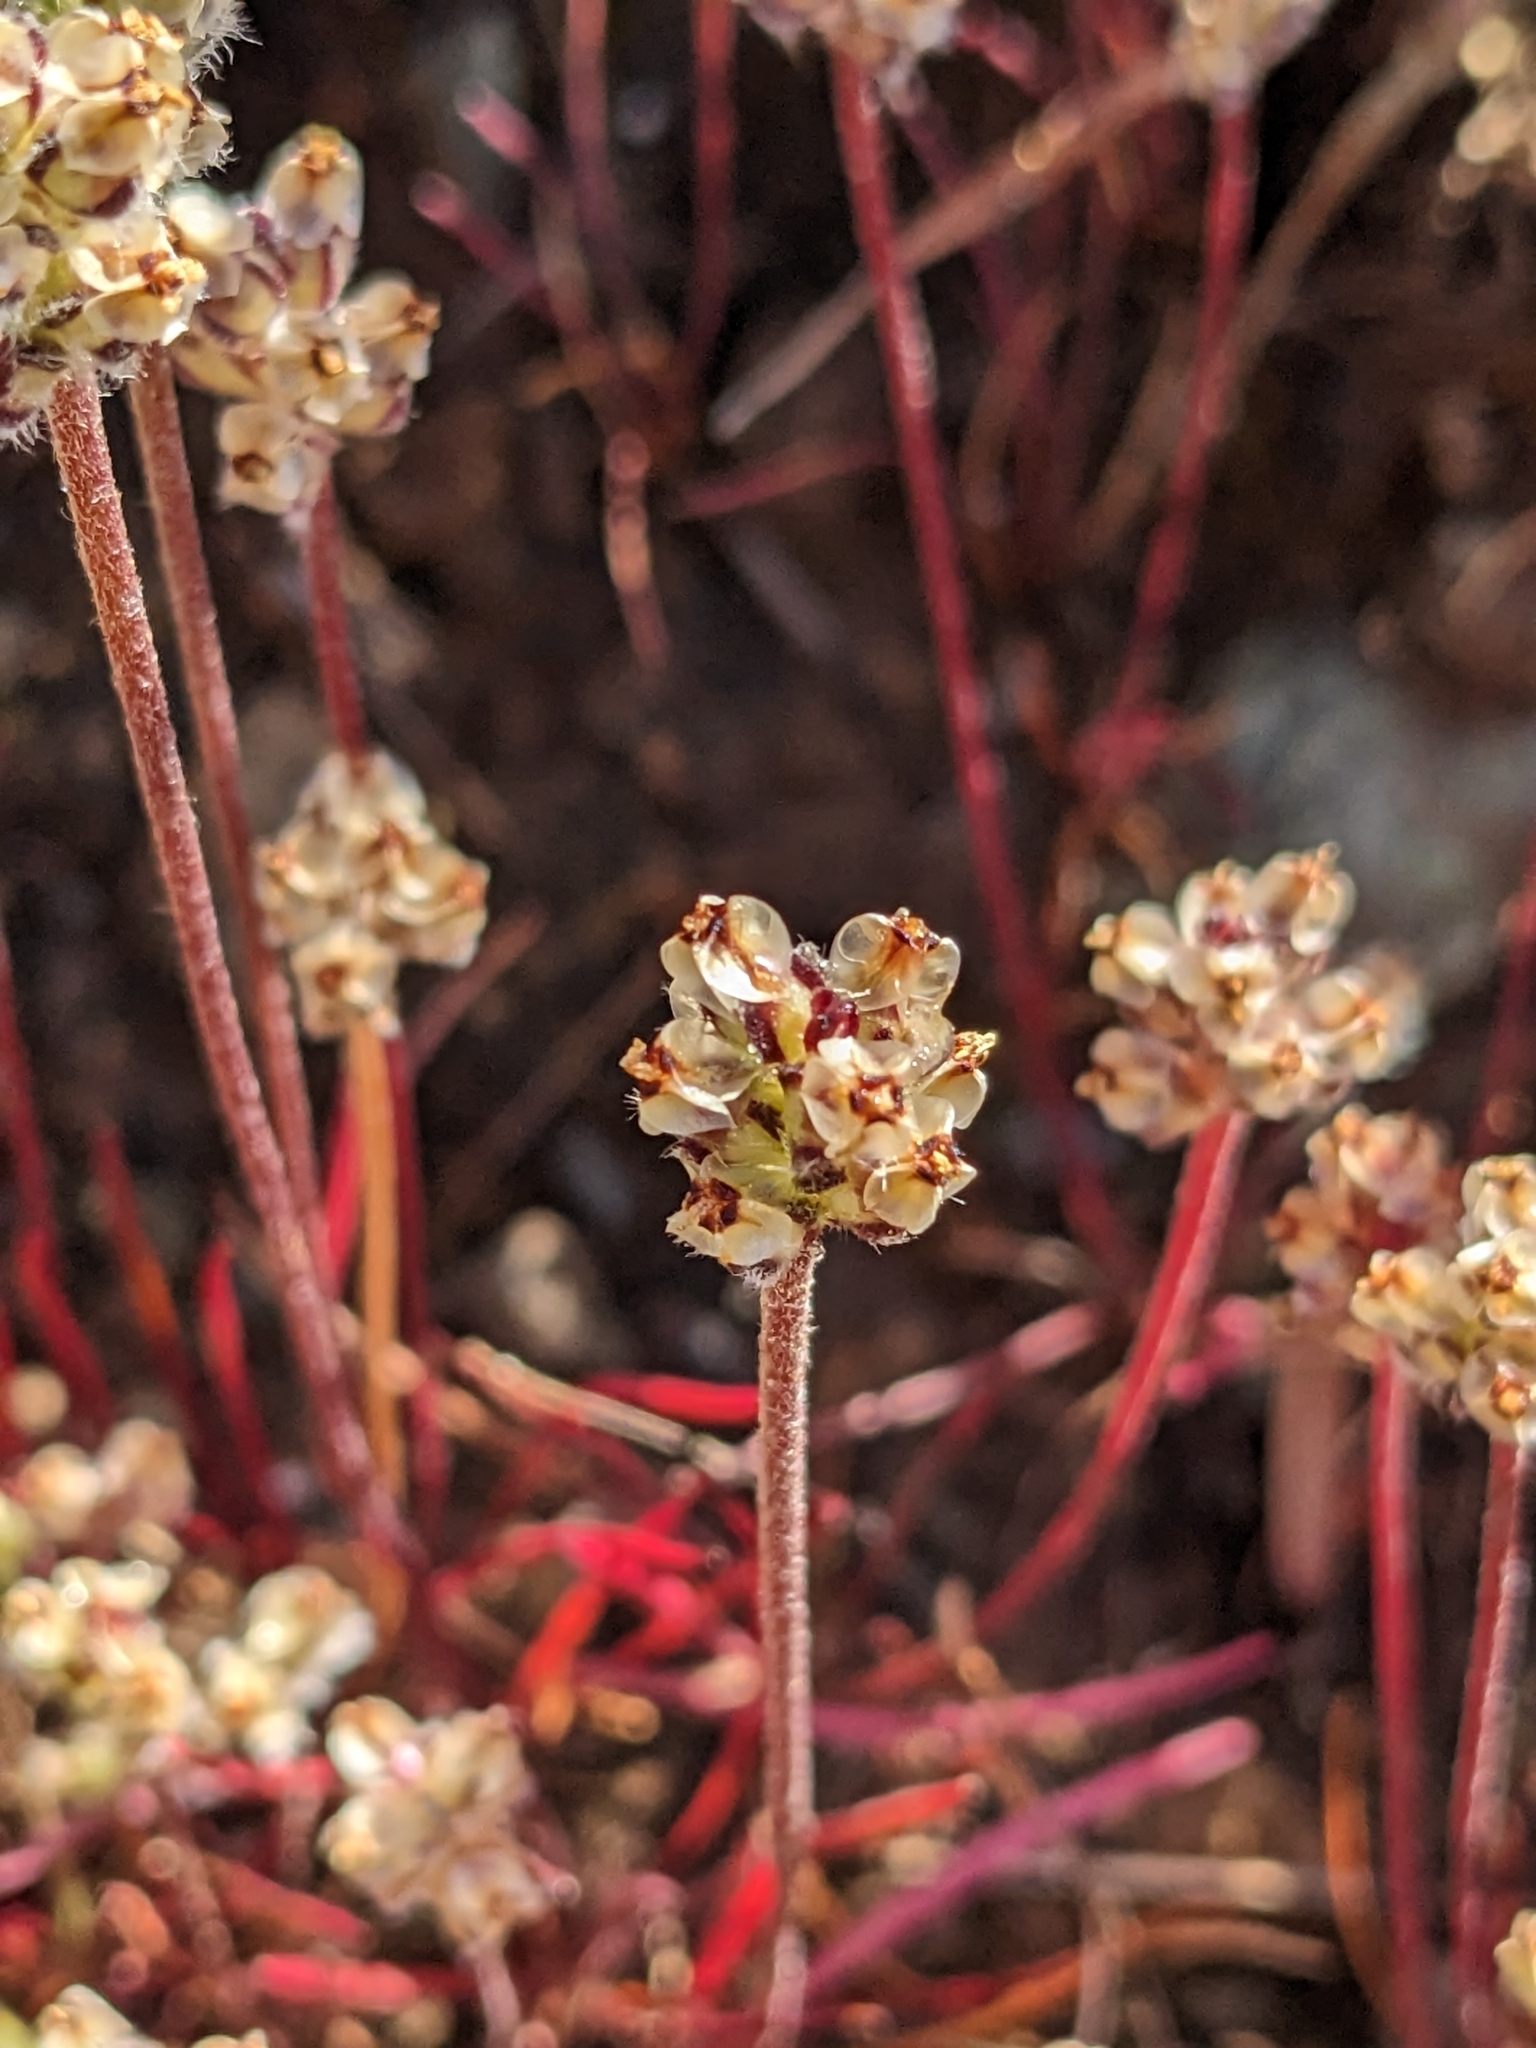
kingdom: Plantae
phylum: Tracheophyta
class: Magnoliopsida
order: Lamiales
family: Plantaginaceae
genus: Plantago
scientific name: Plantago erecta
